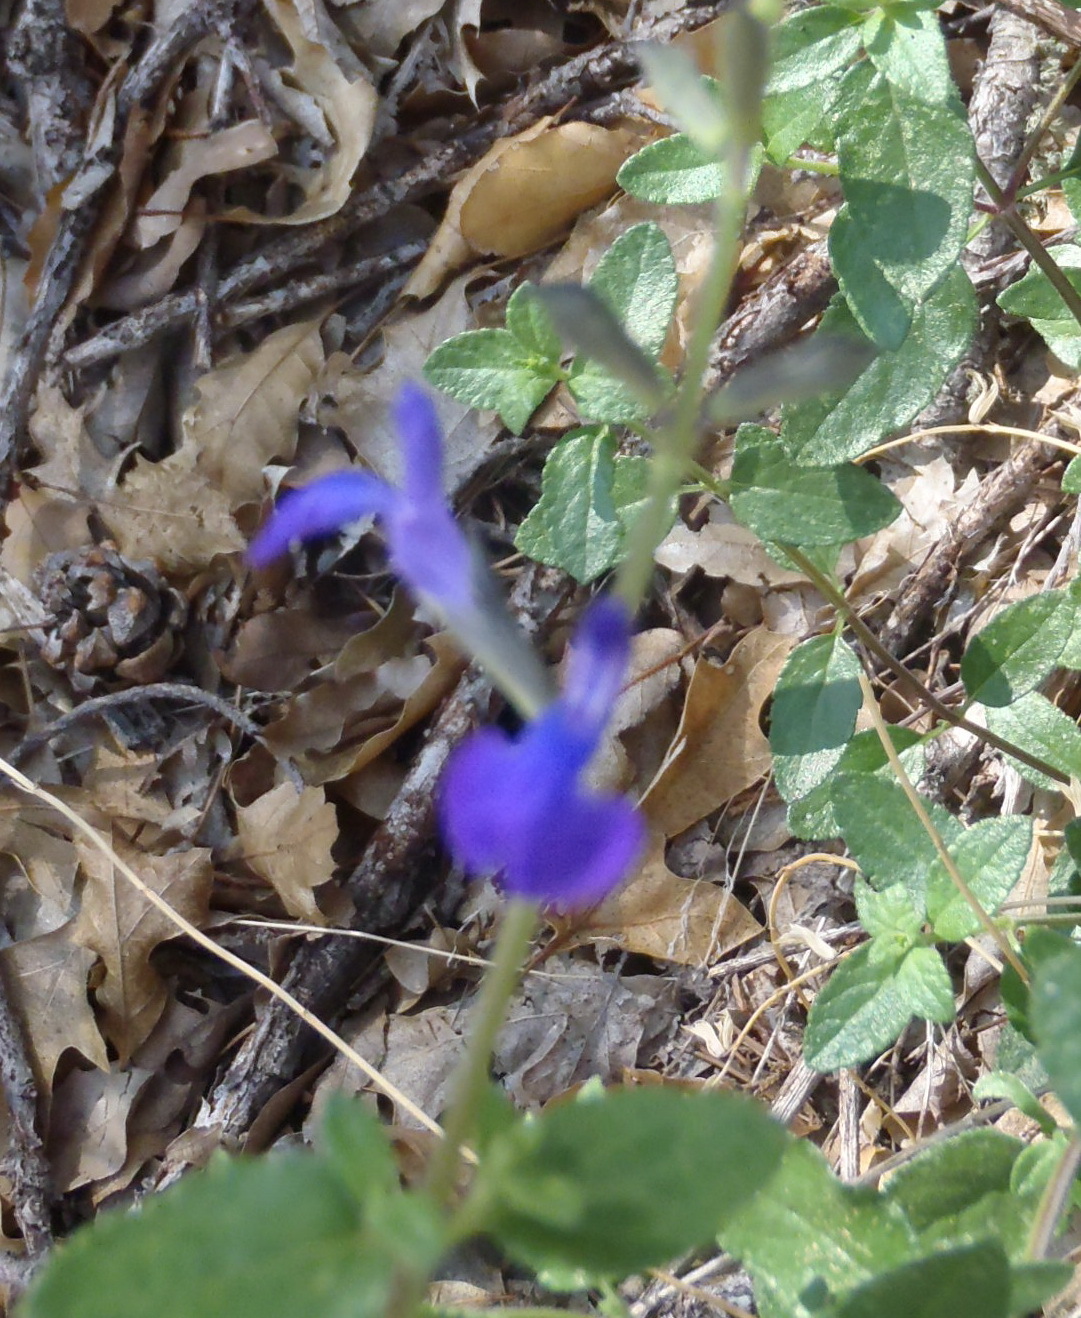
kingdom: Plantae
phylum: Tracheophyta
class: Magnoliopsida
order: Lamiales
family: Lamiaceae
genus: Salvia
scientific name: Salvia lycioides
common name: Canyon sage
